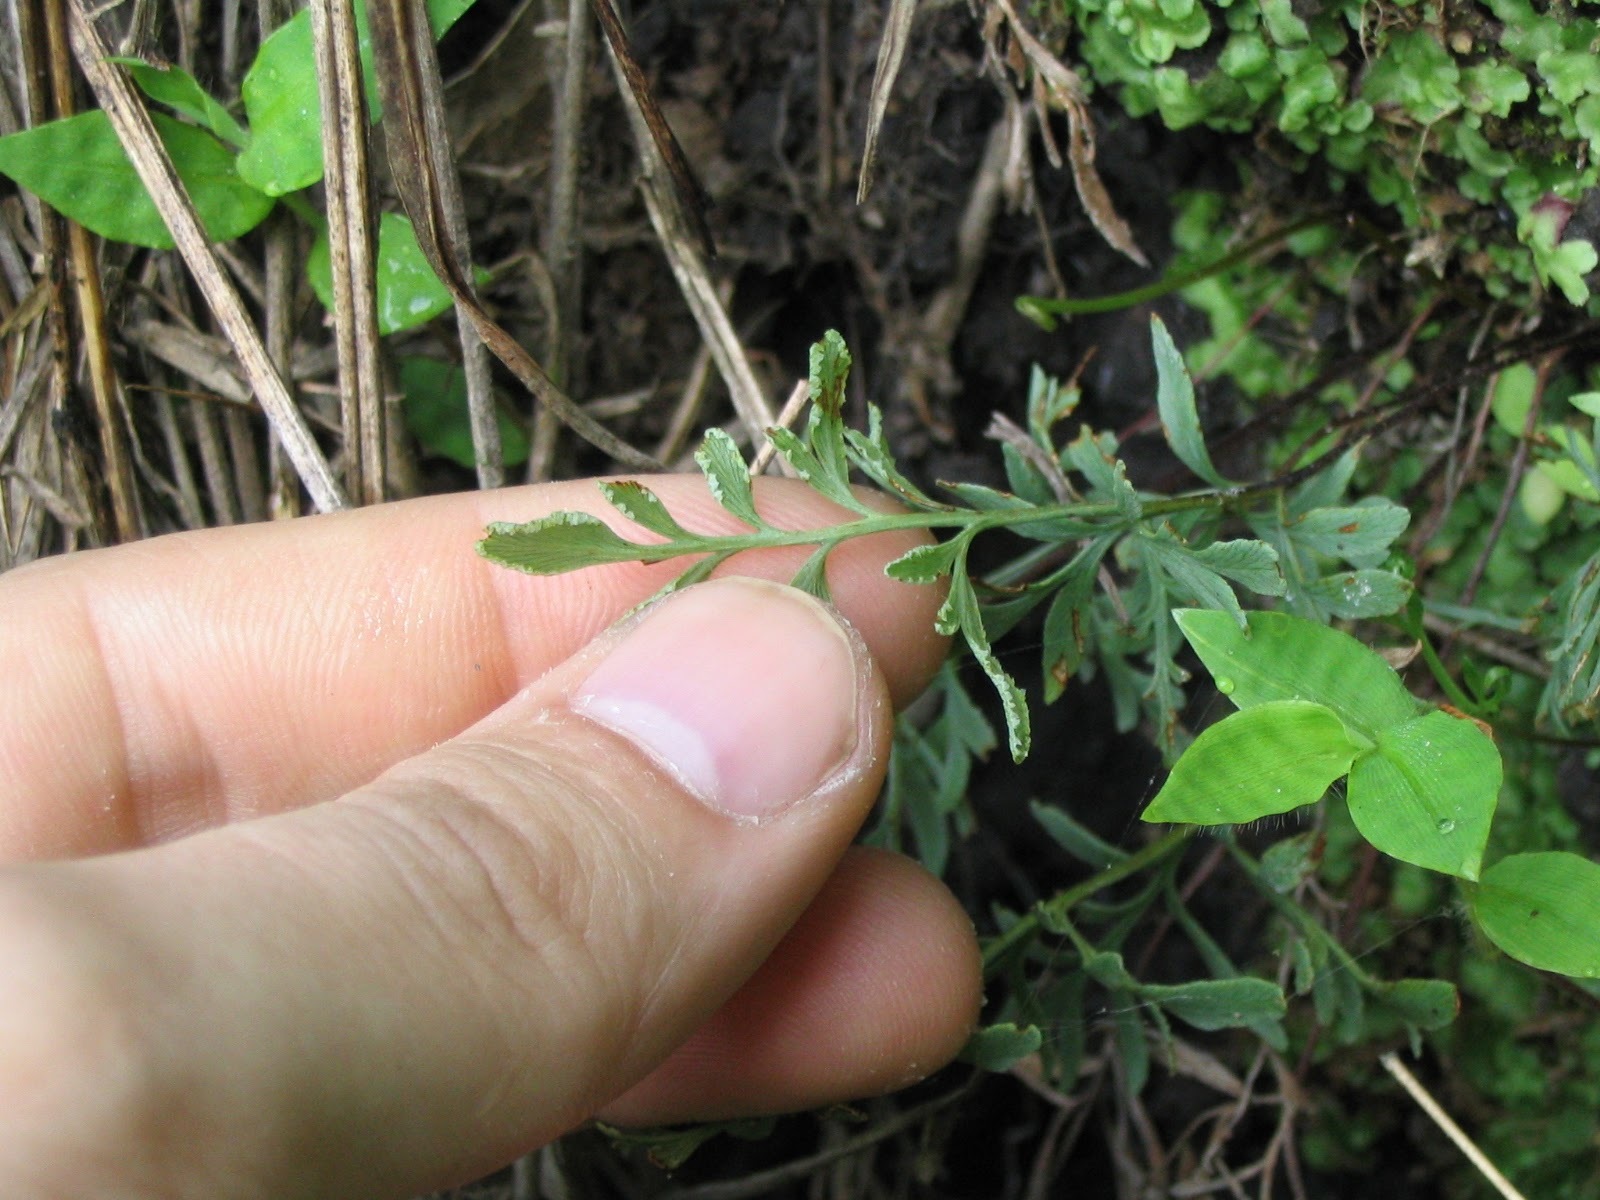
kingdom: Plantae
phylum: Tracheophyta
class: Polypodiopsida
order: Polypodiales
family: Pteridaceae
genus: Gaga
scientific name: Gaga angustifolia
